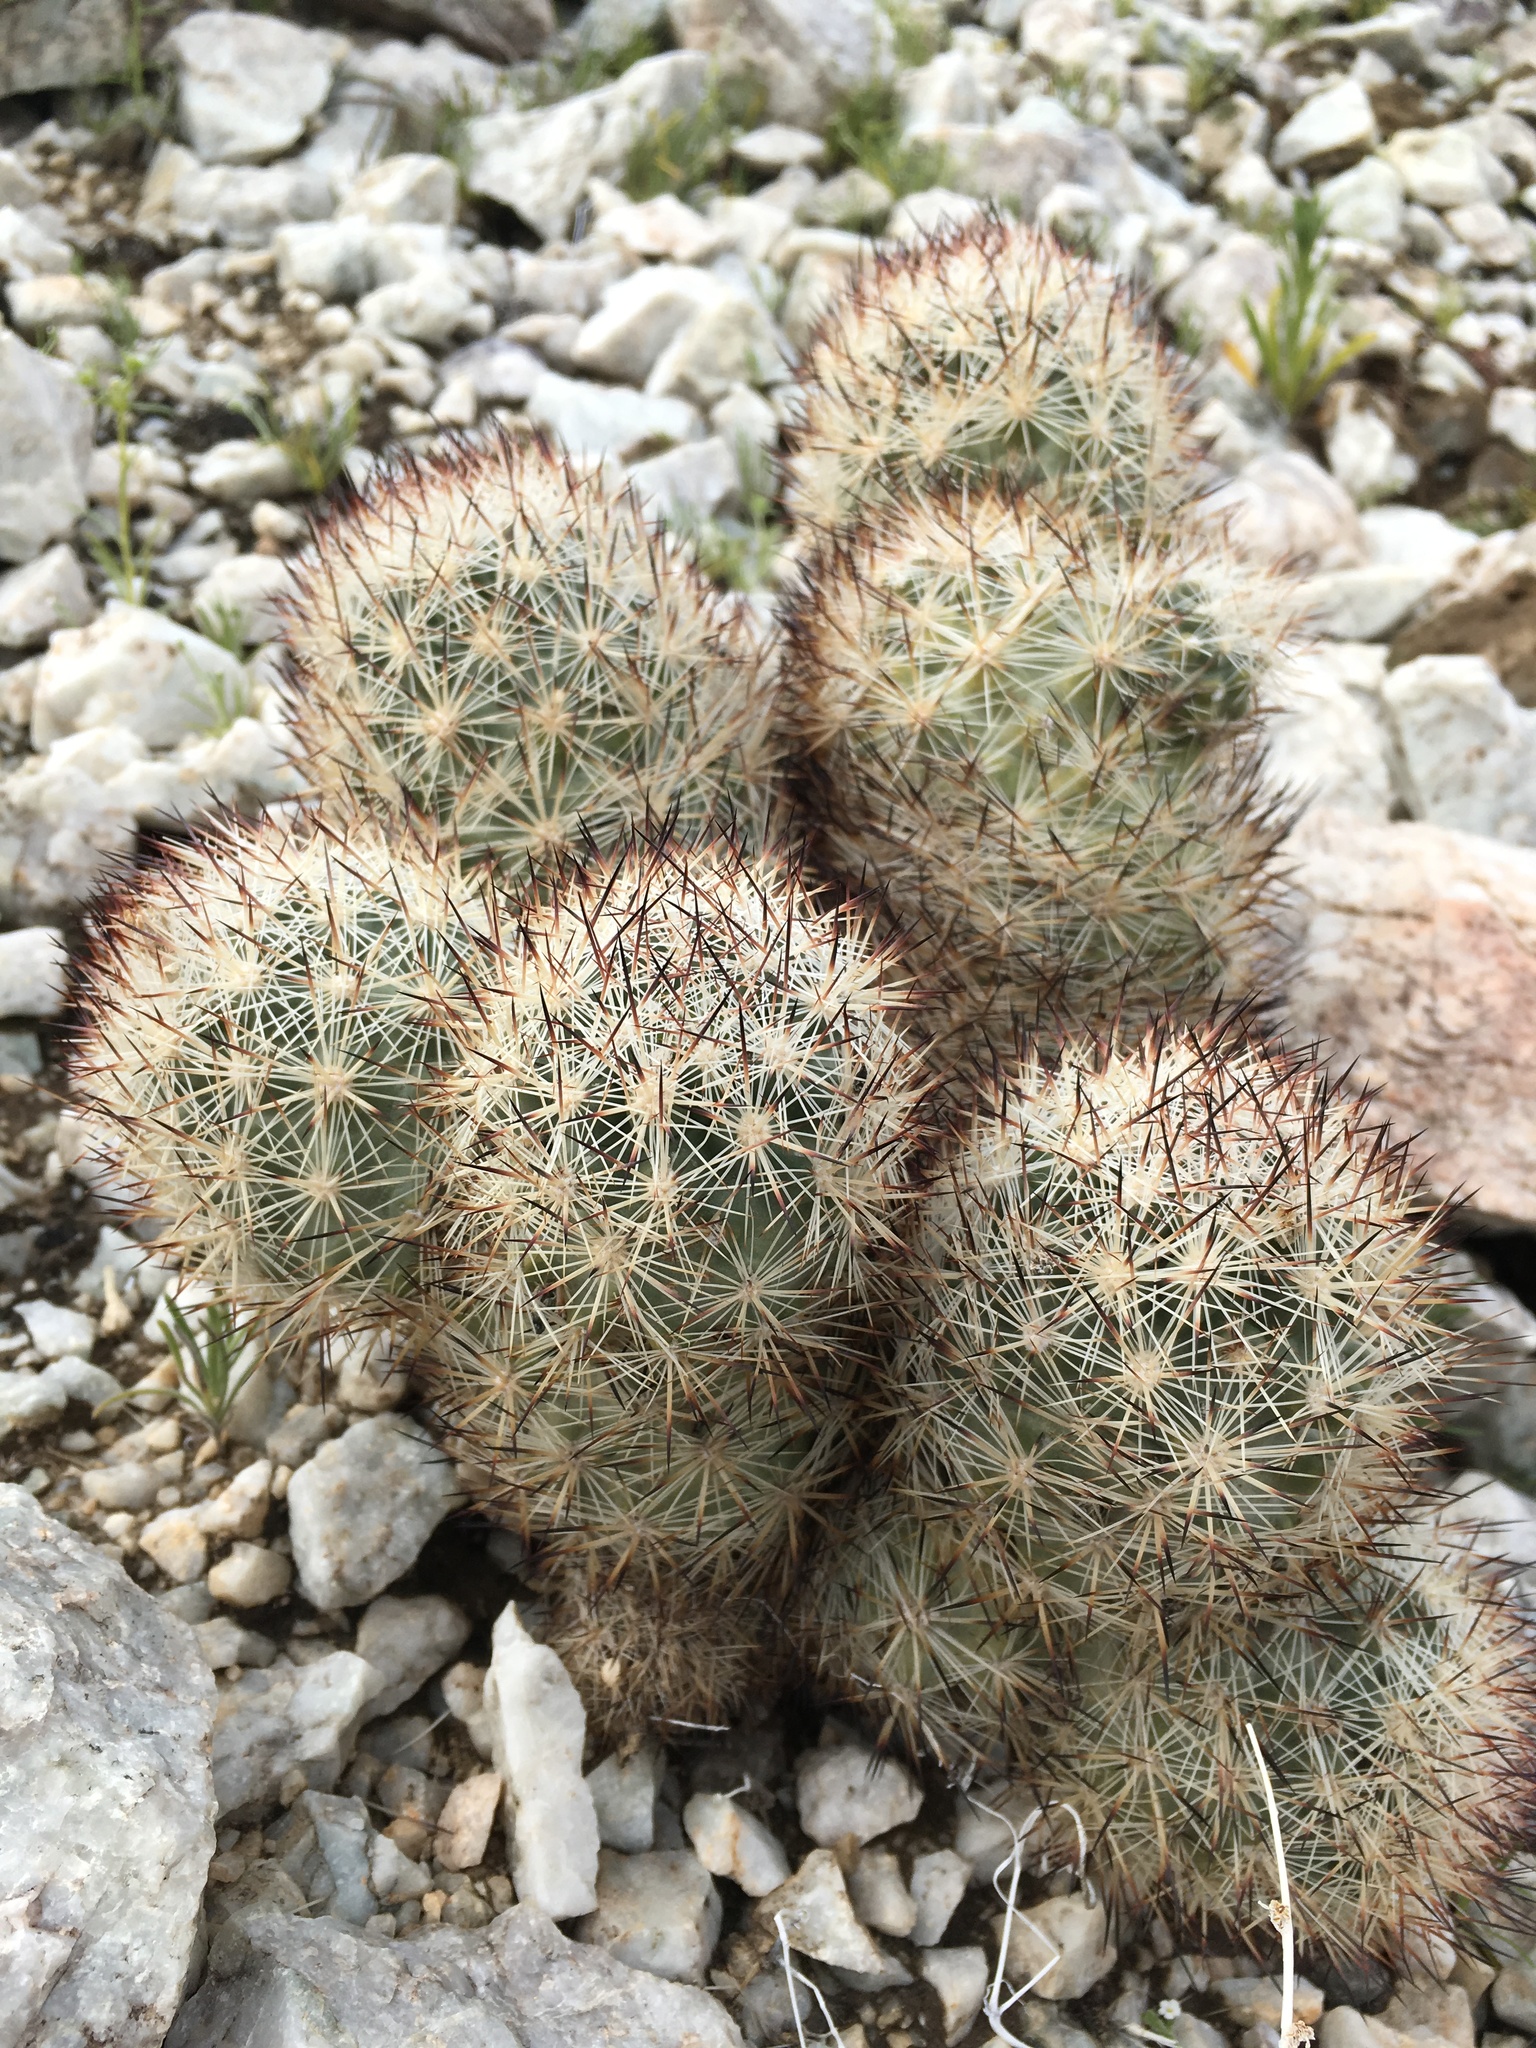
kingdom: Plantae
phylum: Tracheophyta
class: Magnoliopsida
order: Caryophyllales
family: Cactaceae
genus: Pelecyphora
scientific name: Pelecyphora alversonii
